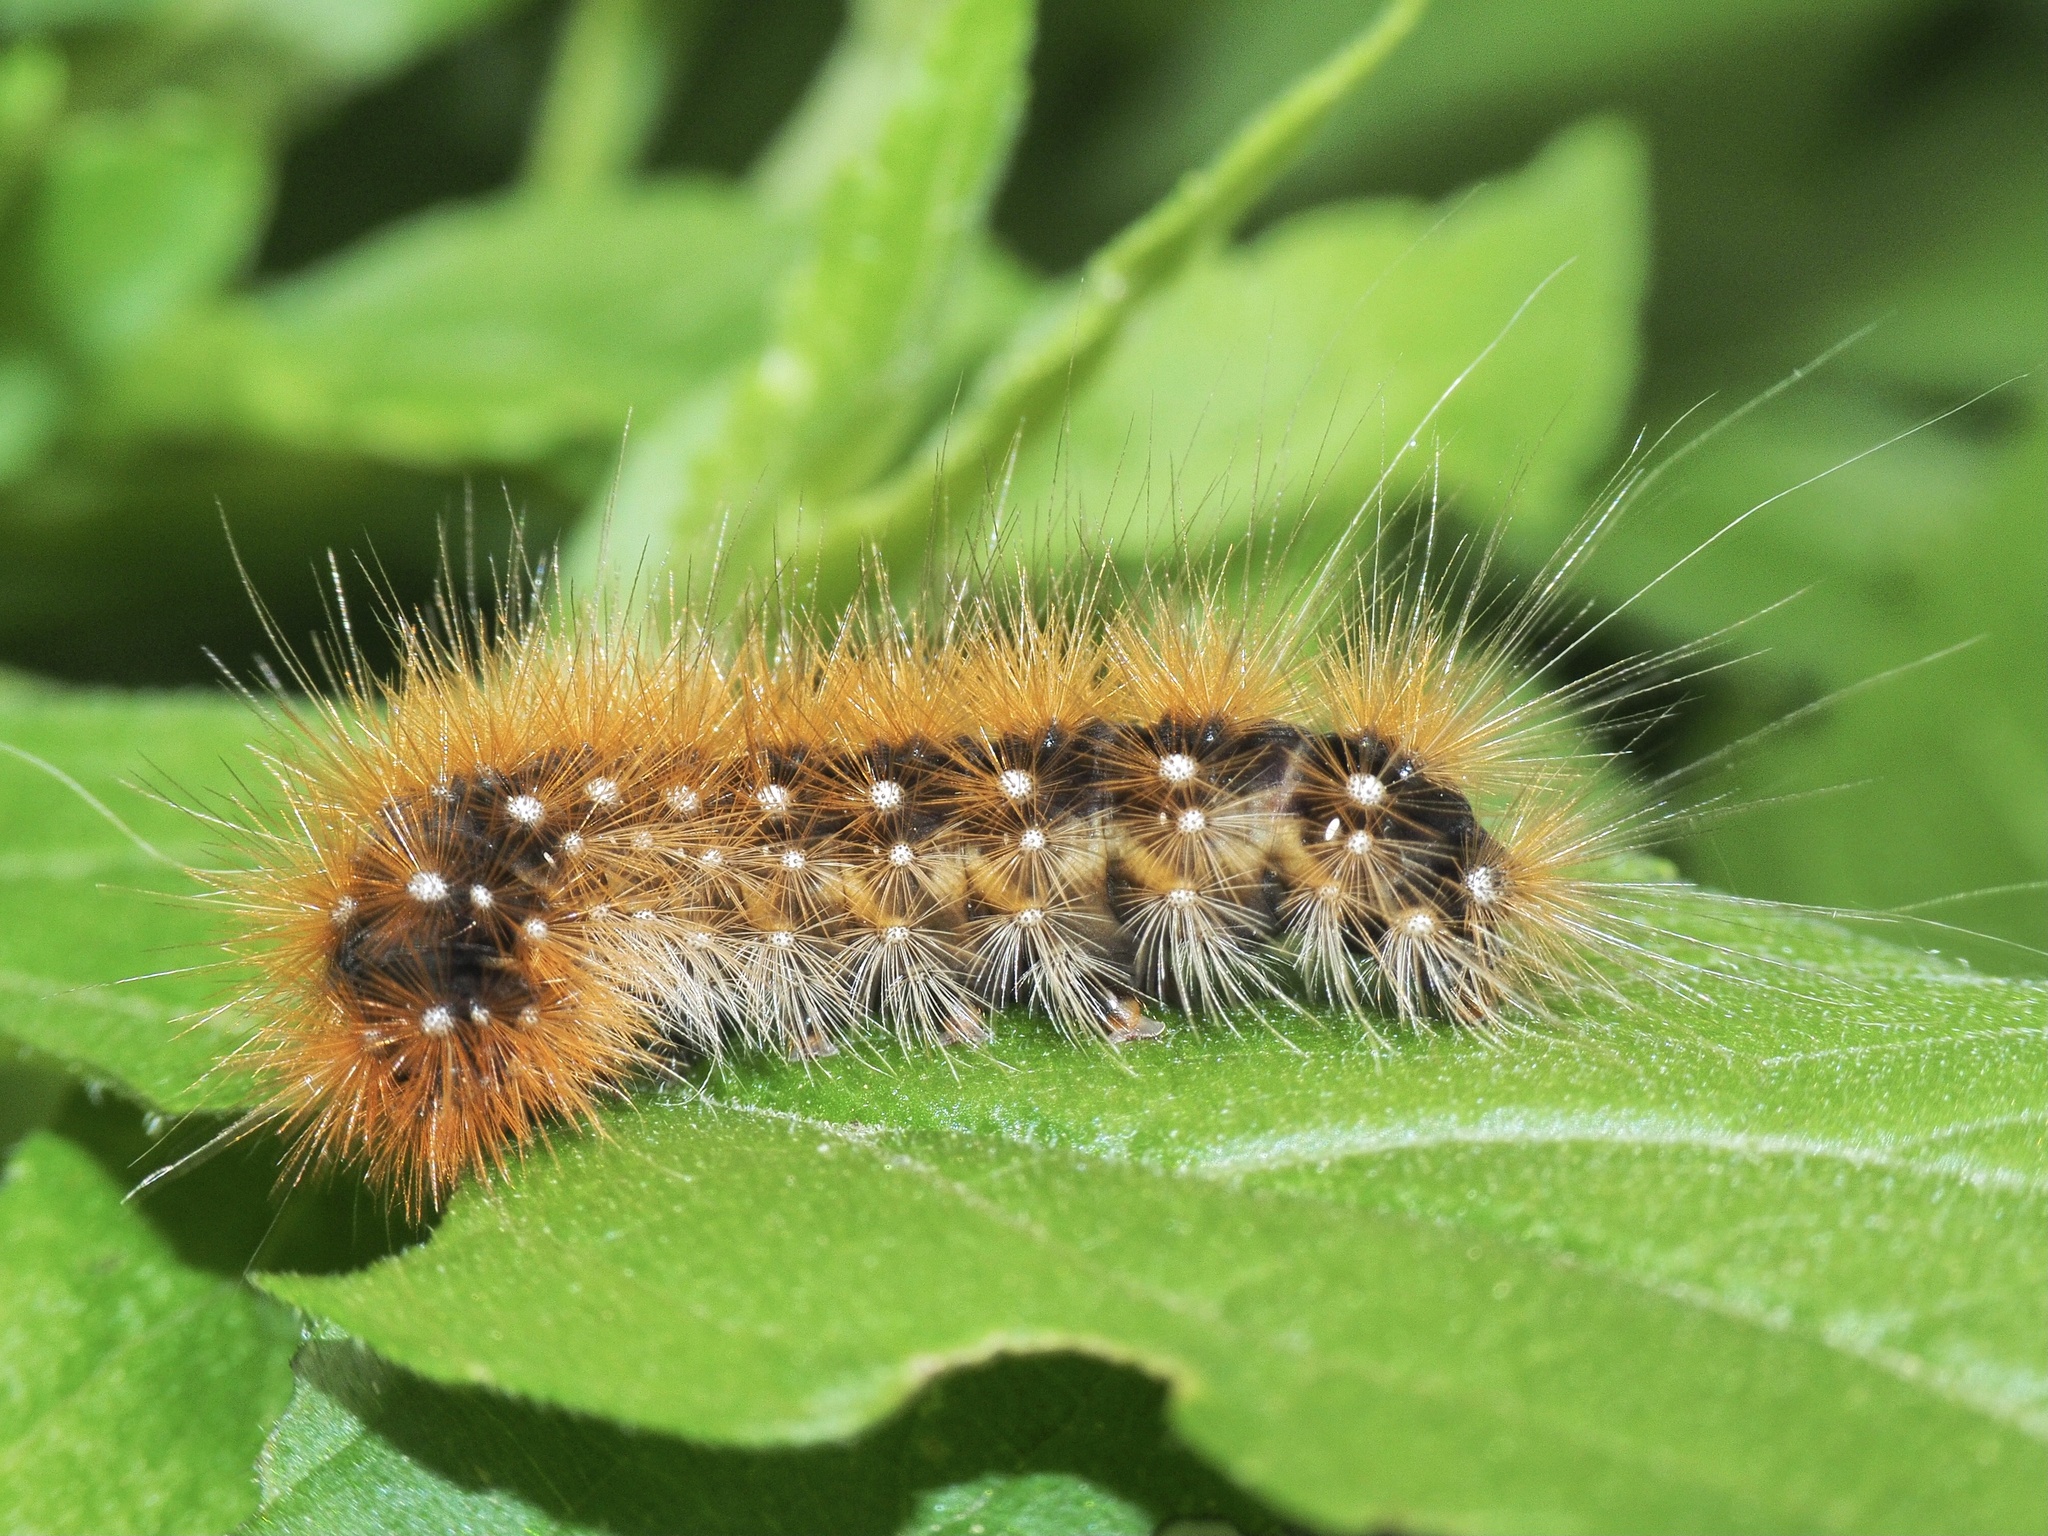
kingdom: Animalia
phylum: Arthropoda
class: Insecta
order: Lepidoptera
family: Erebidae
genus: Arctia
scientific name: Arctia caja
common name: Garden tiger
